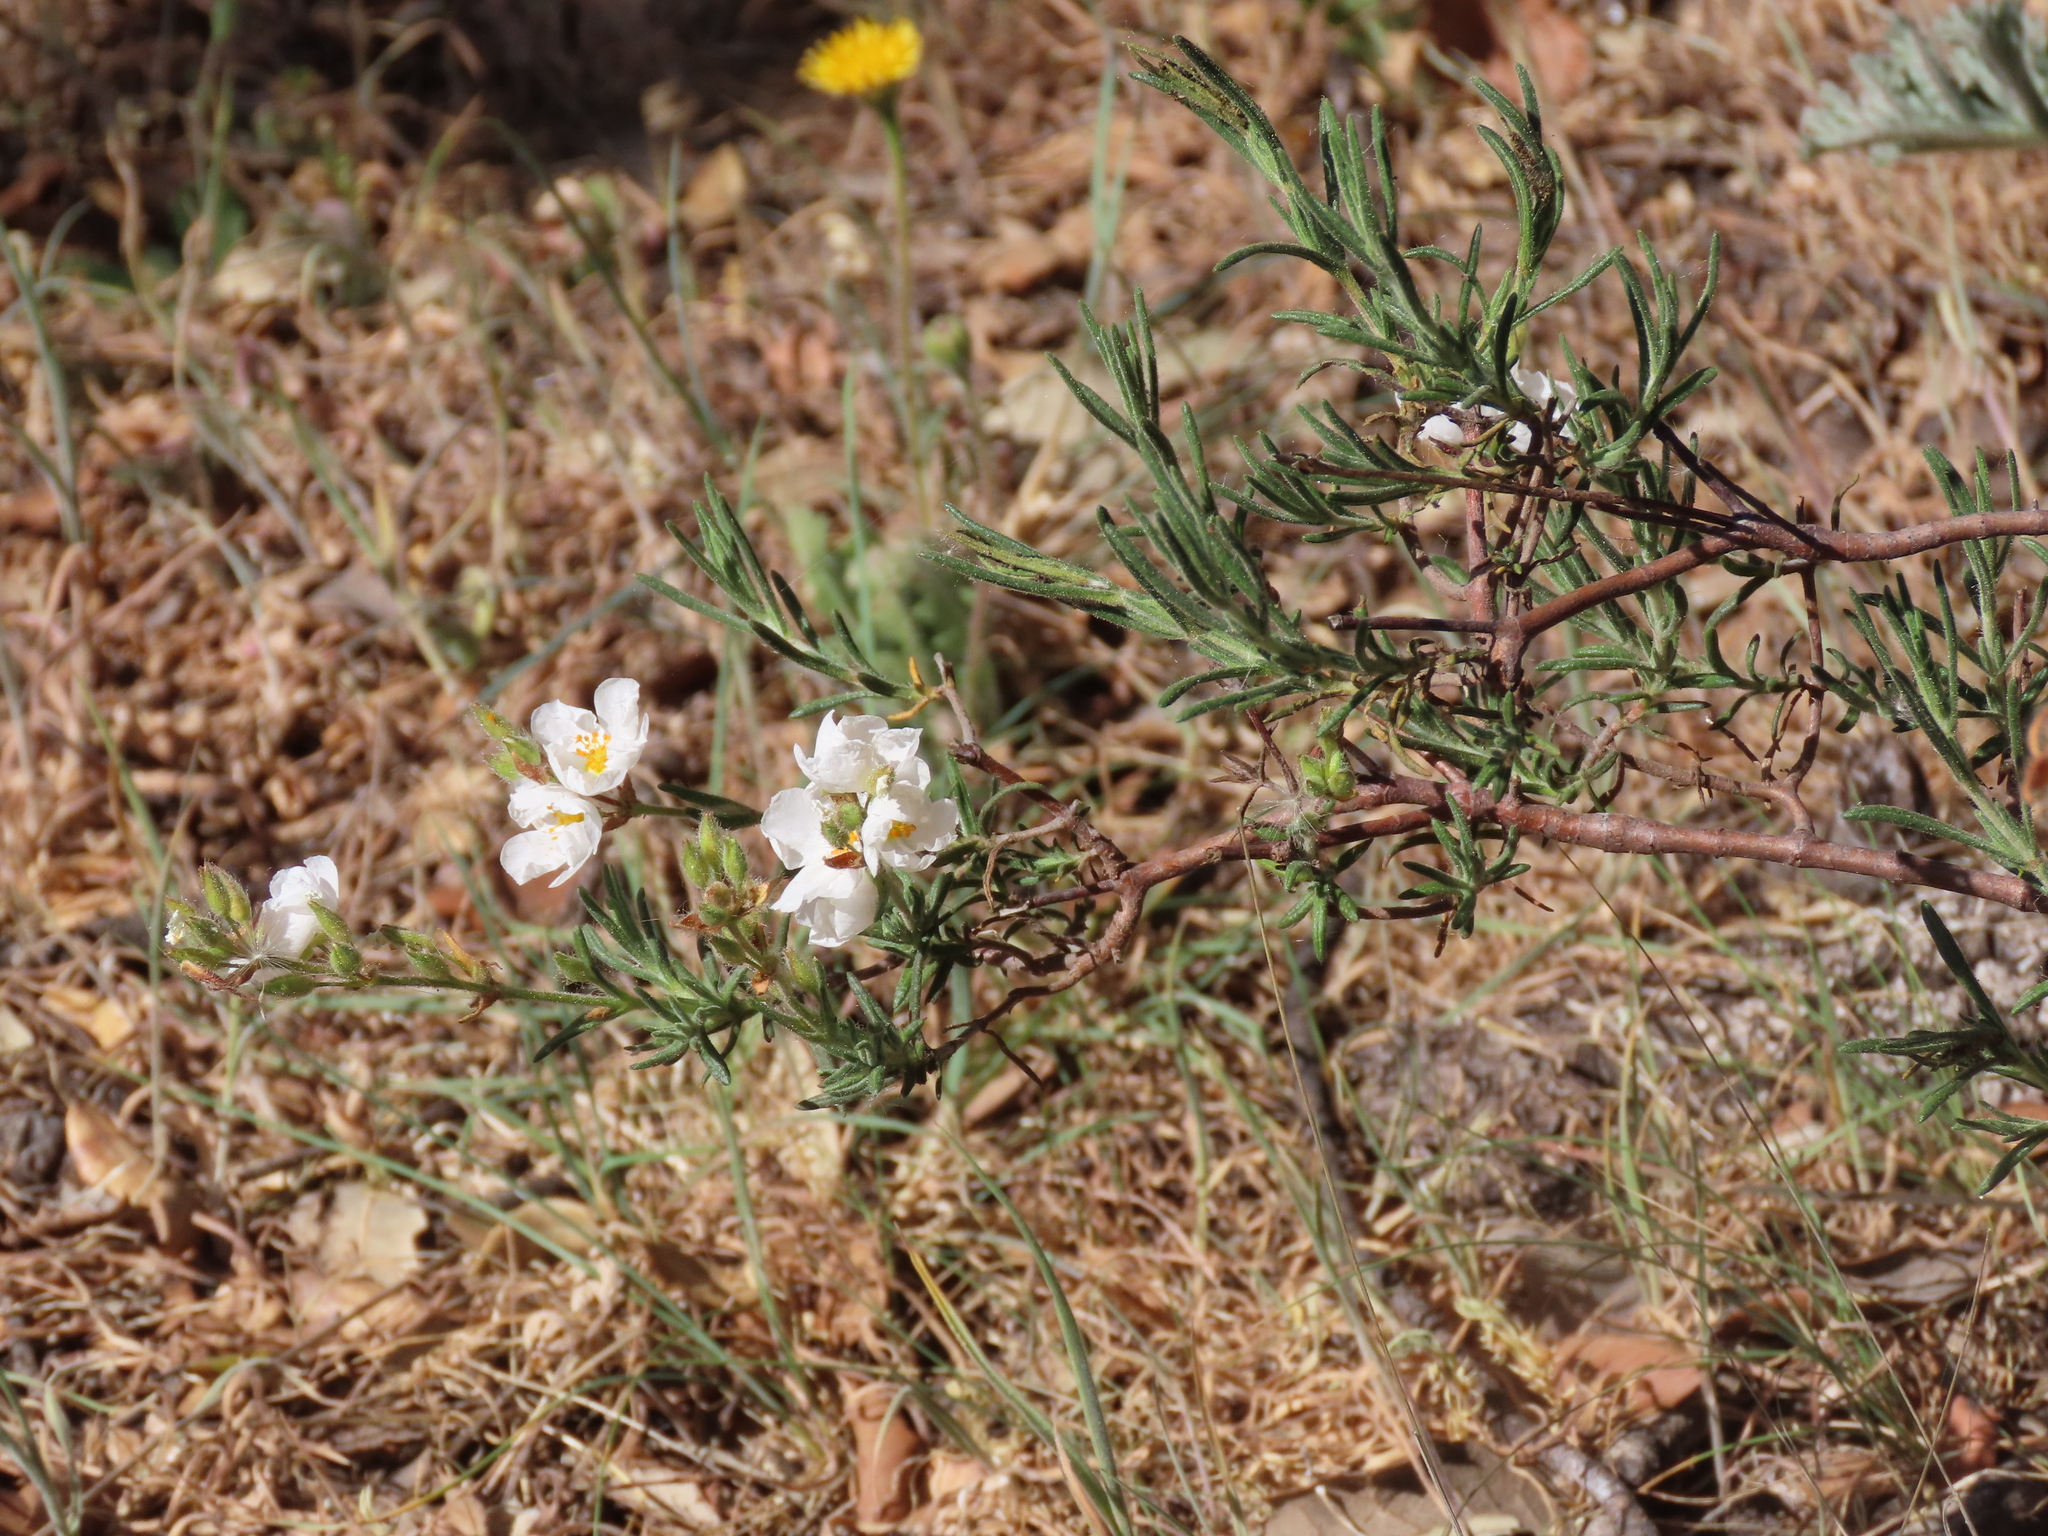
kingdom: Plantae
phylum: Tracheophyta
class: Magnoliopsida
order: Malvales
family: Cistaceae
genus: Halimium
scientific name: Halimium umbellatum
